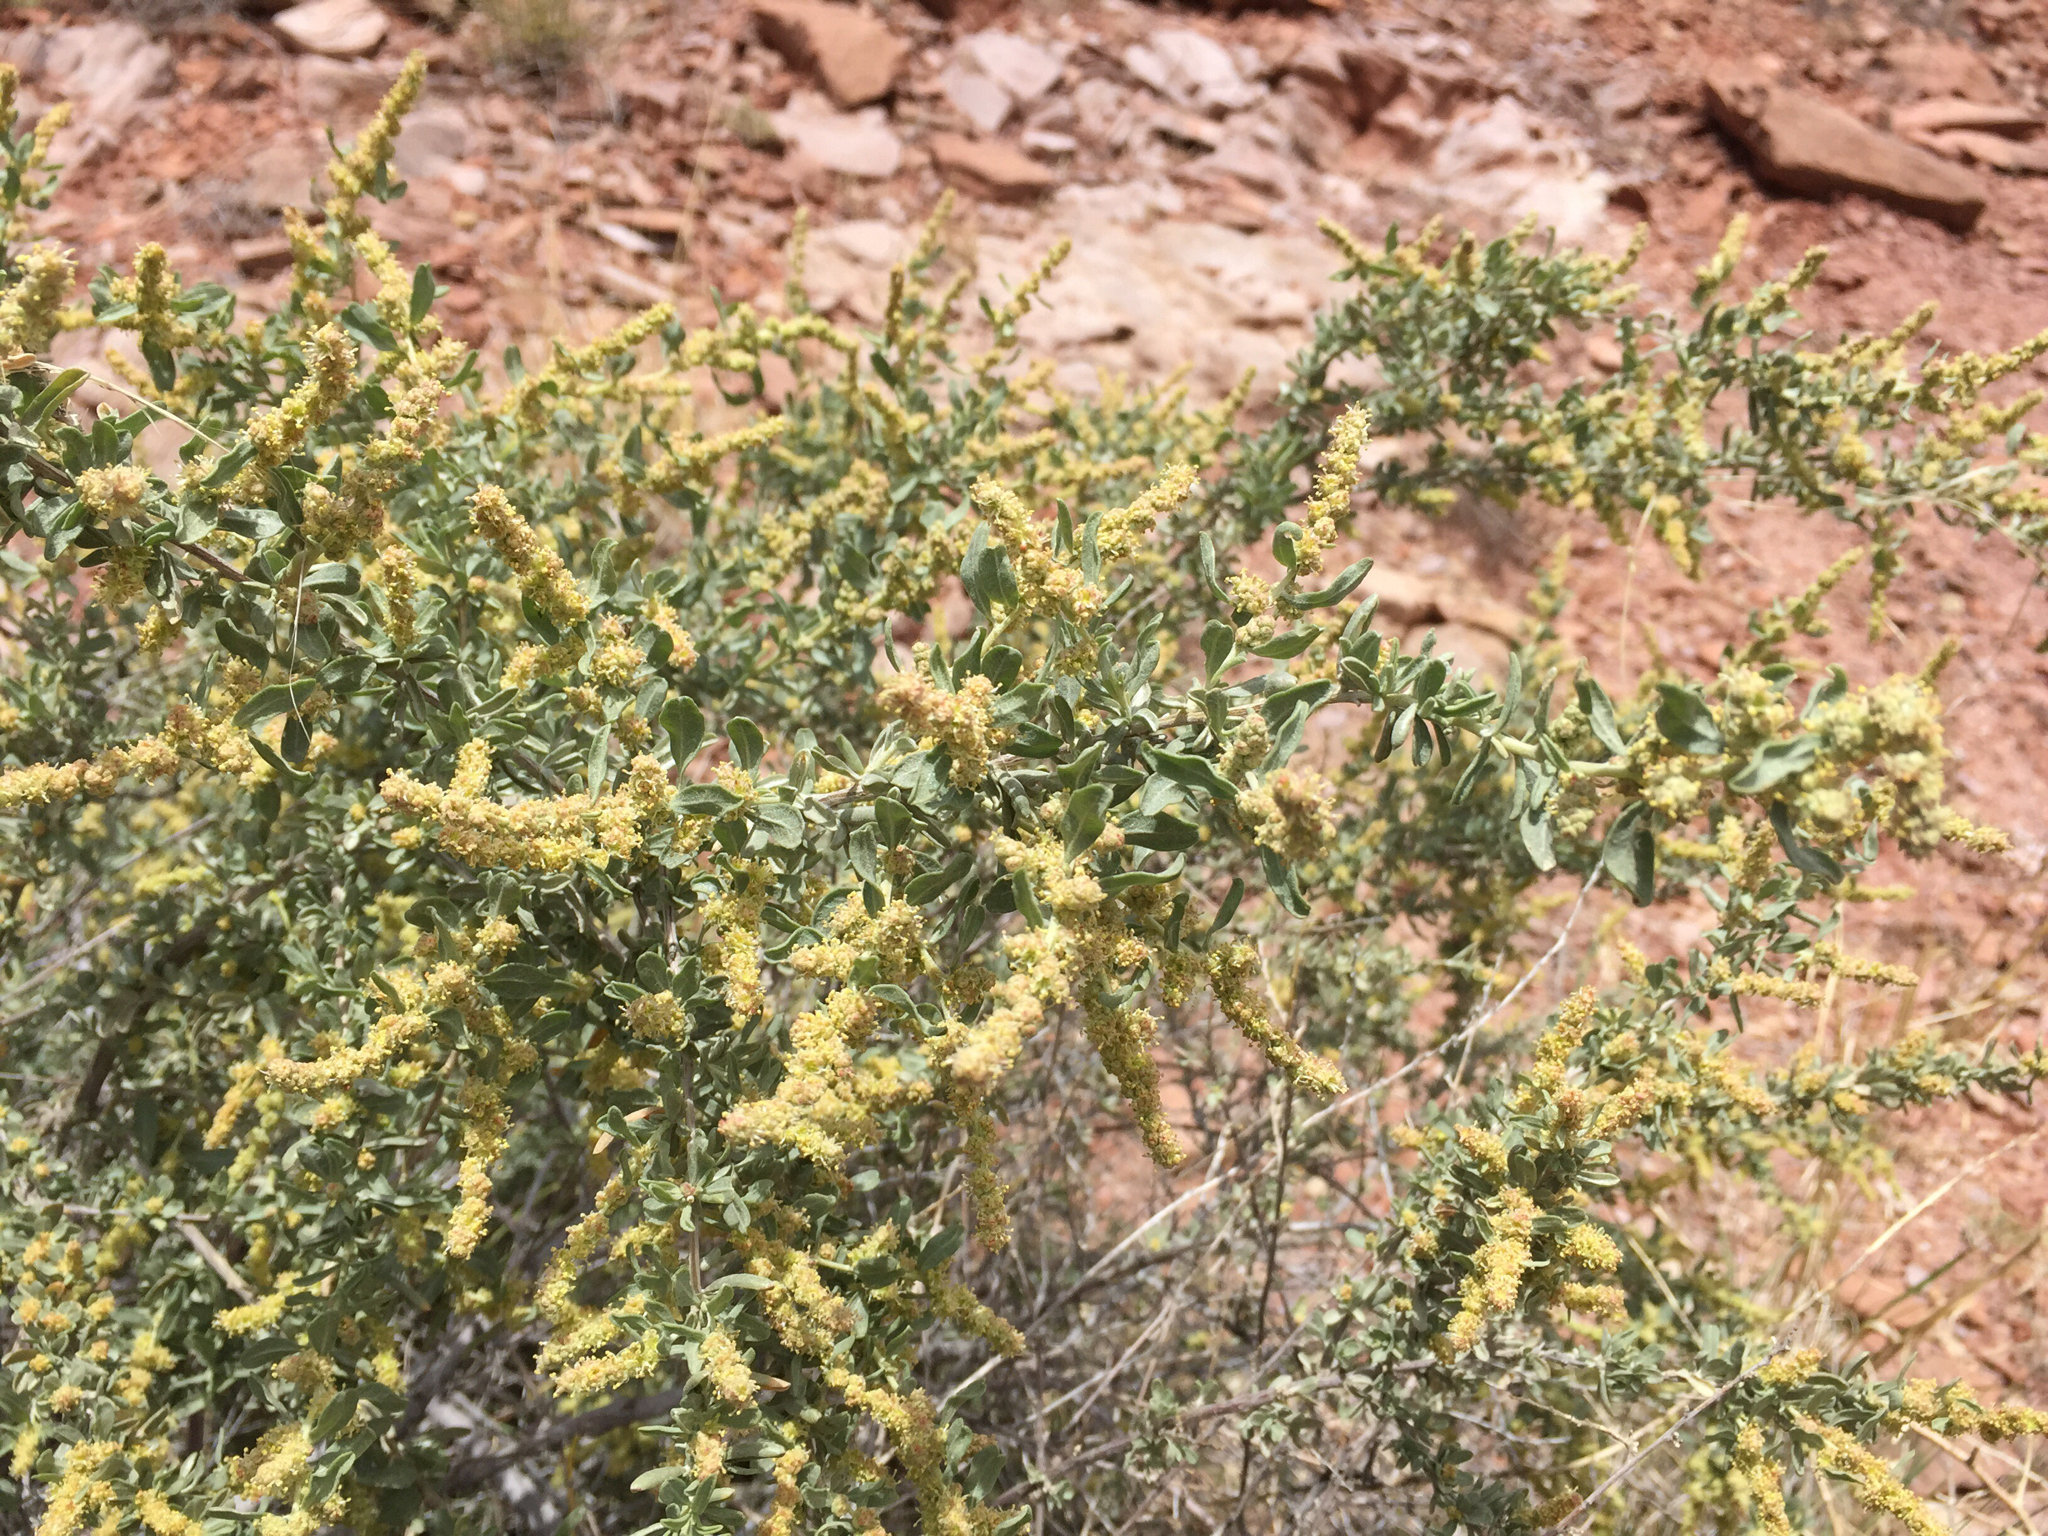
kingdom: Plantae
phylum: Tracheophyta
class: Magnoliopsida
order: Caryophyllales
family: Amaranthaceae
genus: Atriplex
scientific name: Atriplex canescens
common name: Four-wing saltbush
